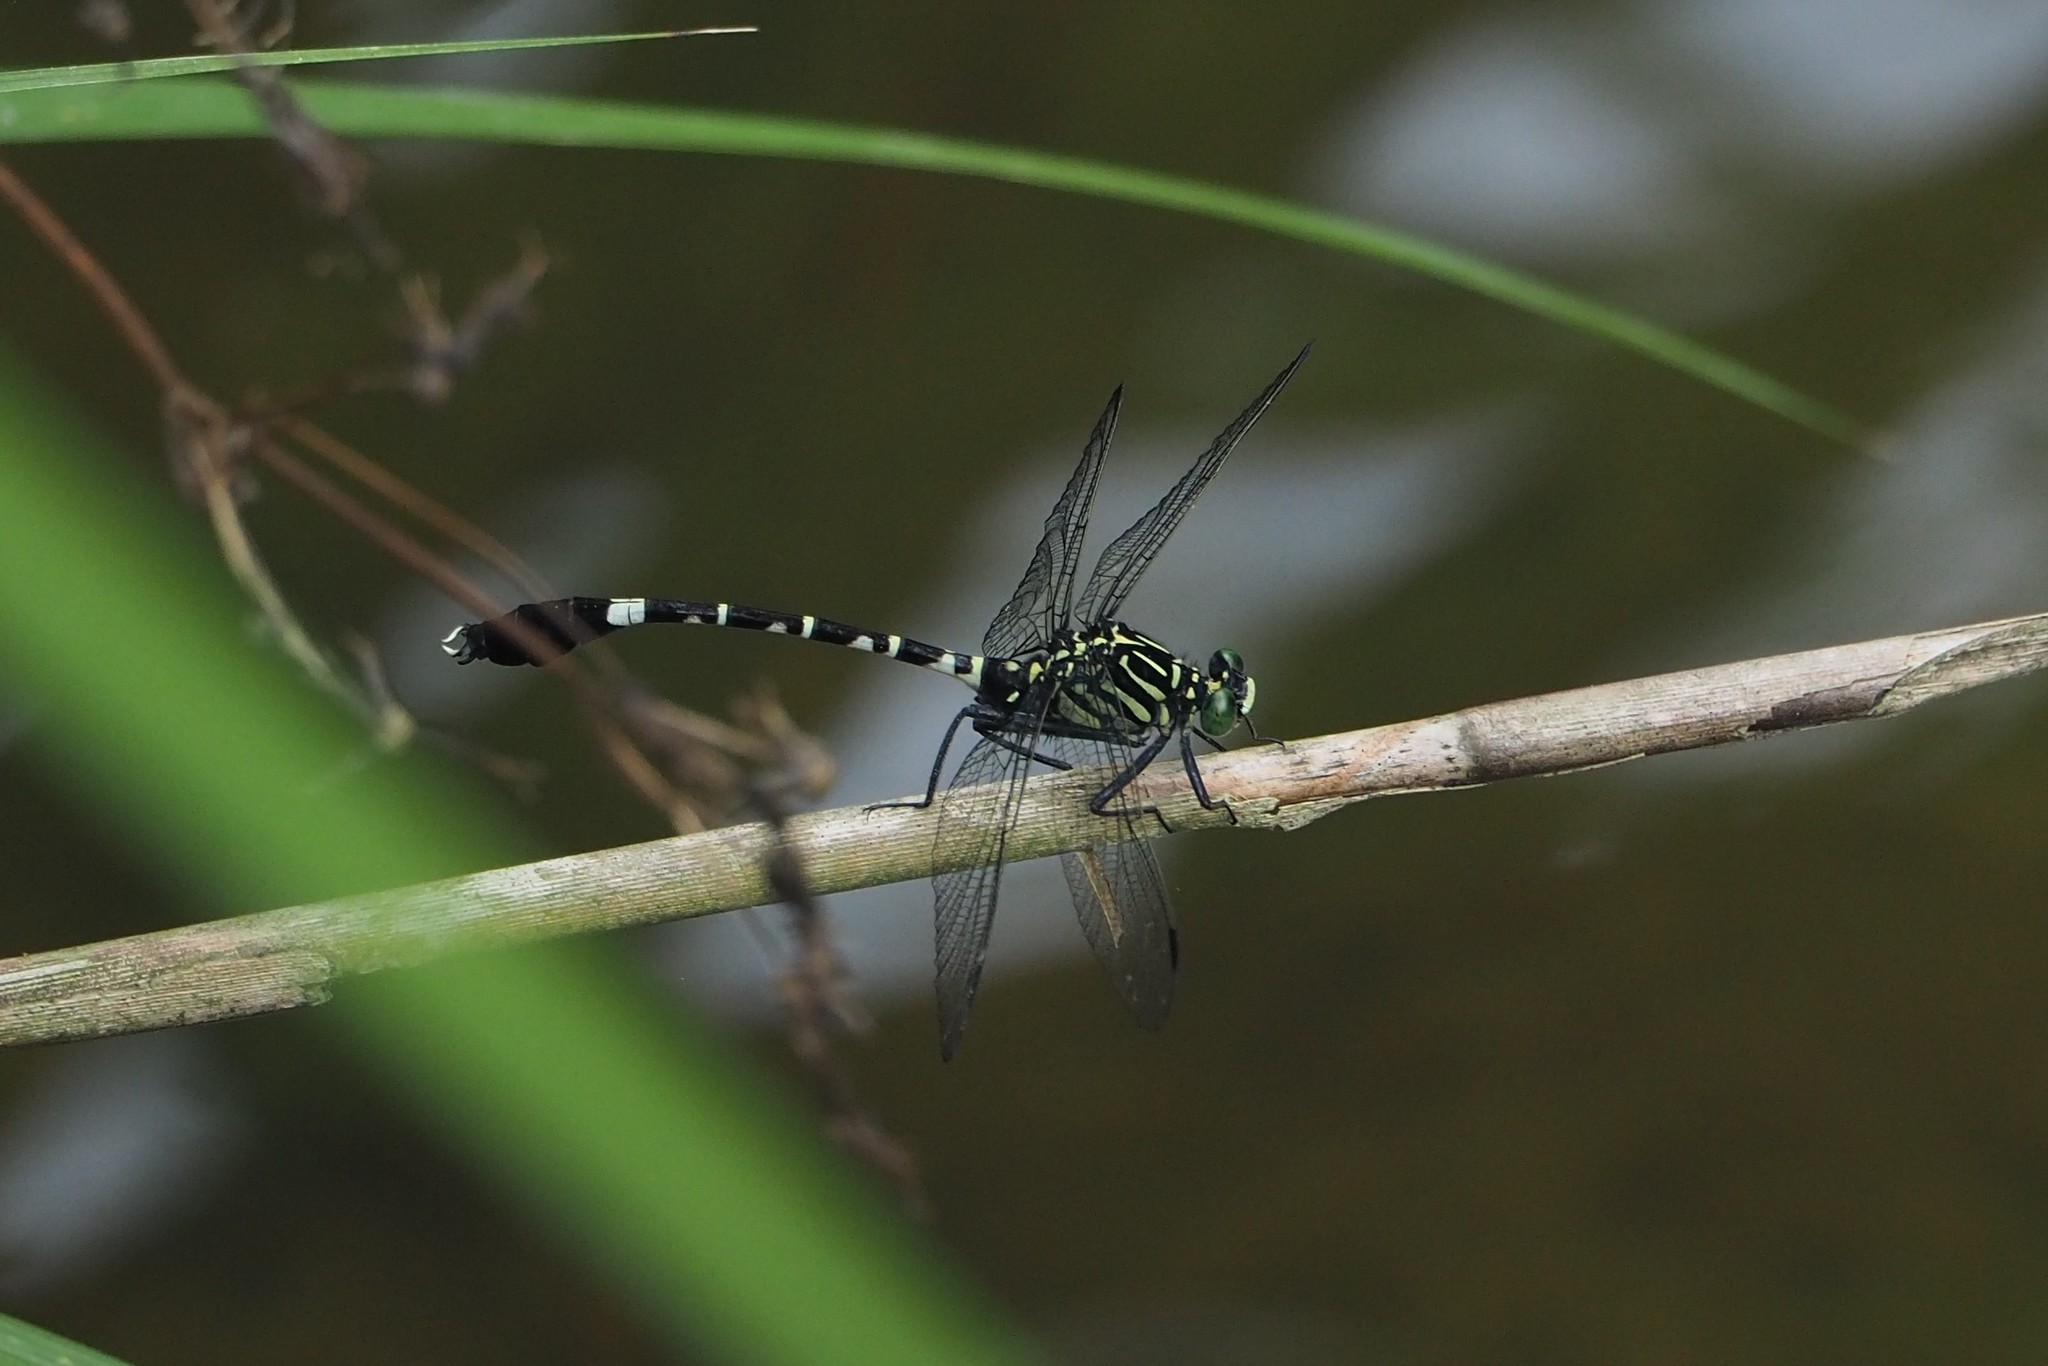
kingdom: Animalia
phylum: Arthropoda
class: Insecta
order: Odonata
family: Gomphidae
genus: Merogomphus
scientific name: Merogomphus pavici
